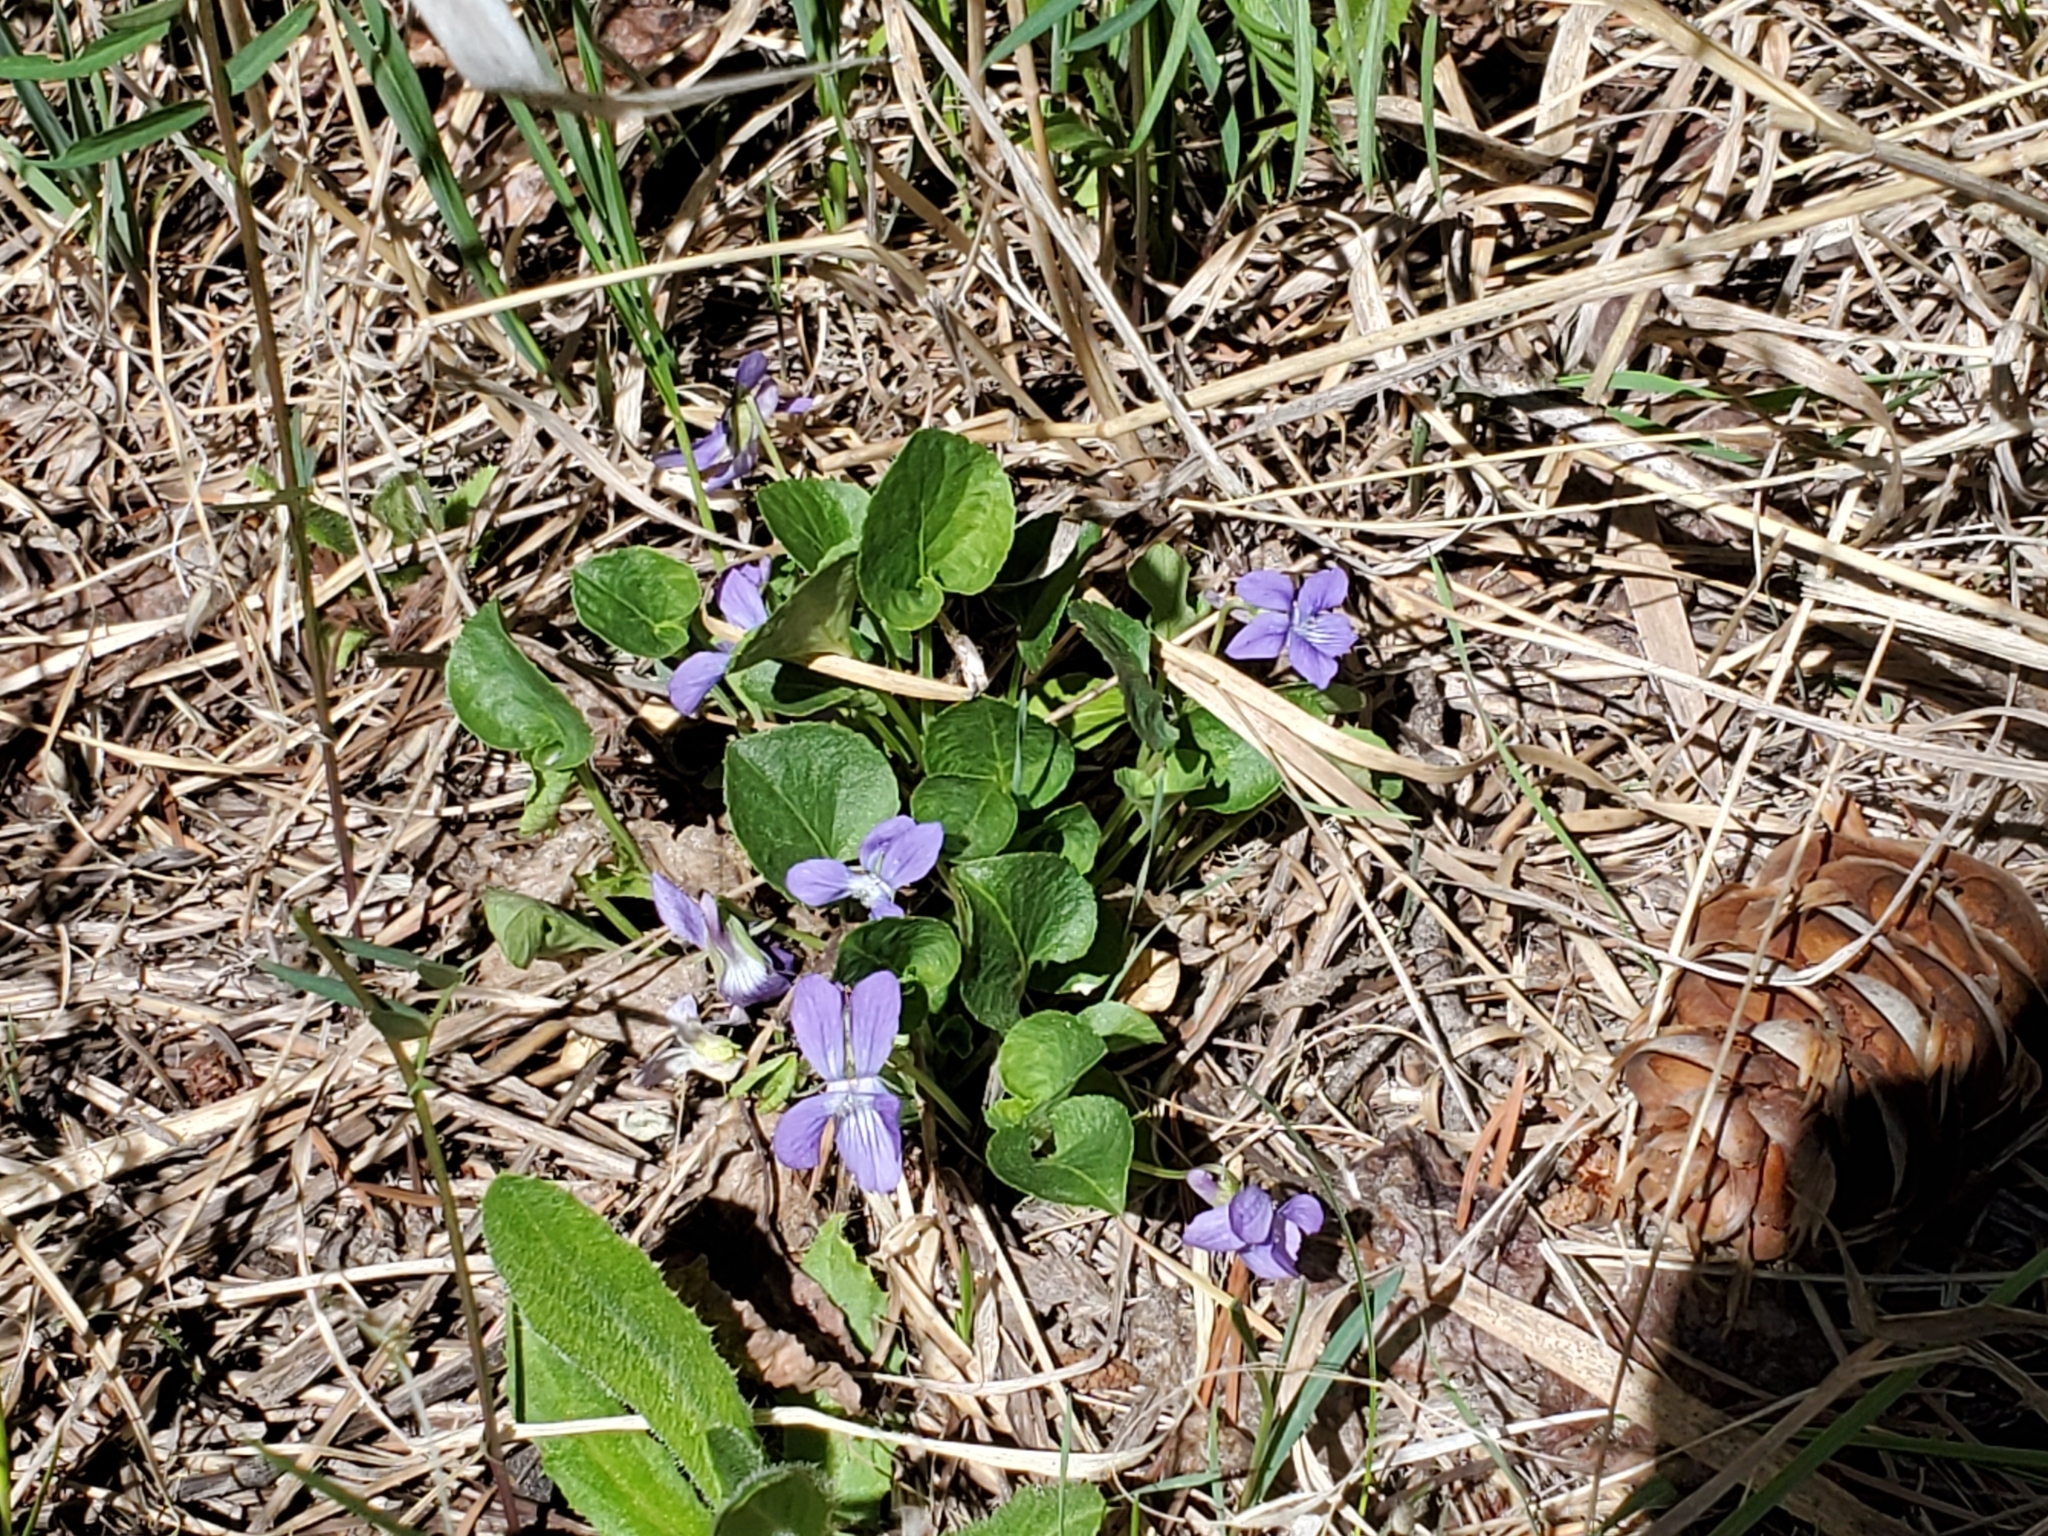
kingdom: Plantae
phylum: Tracheophyta
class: Magnoliopsida
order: Malpighiales
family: Violaceae
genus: Viola
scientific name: Viola adunca
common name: Sand violet
